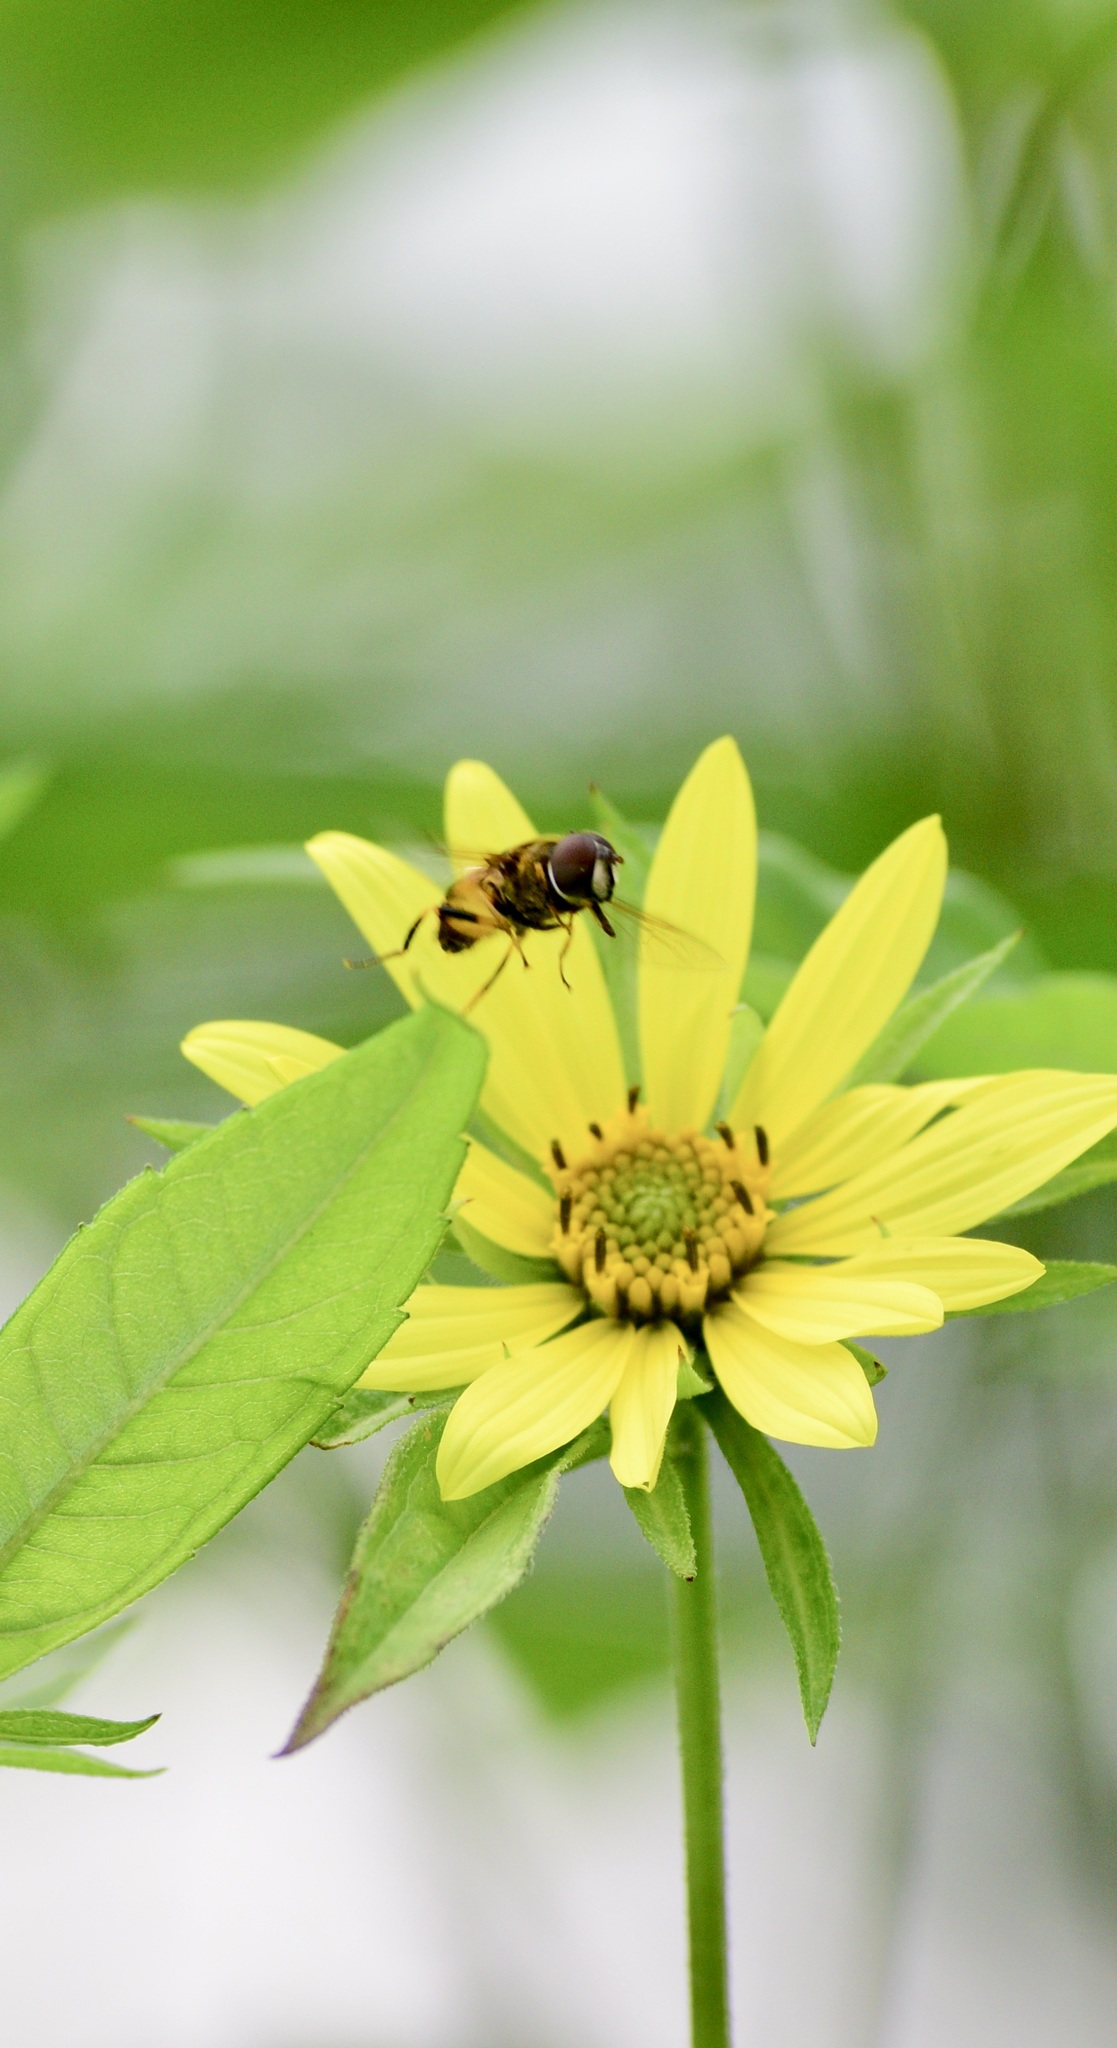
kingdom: Animalia
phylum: Arthropoda
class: Insecta
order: Diptera
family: Syrphidae
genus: Eristalis
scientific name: Eristalis transversa
